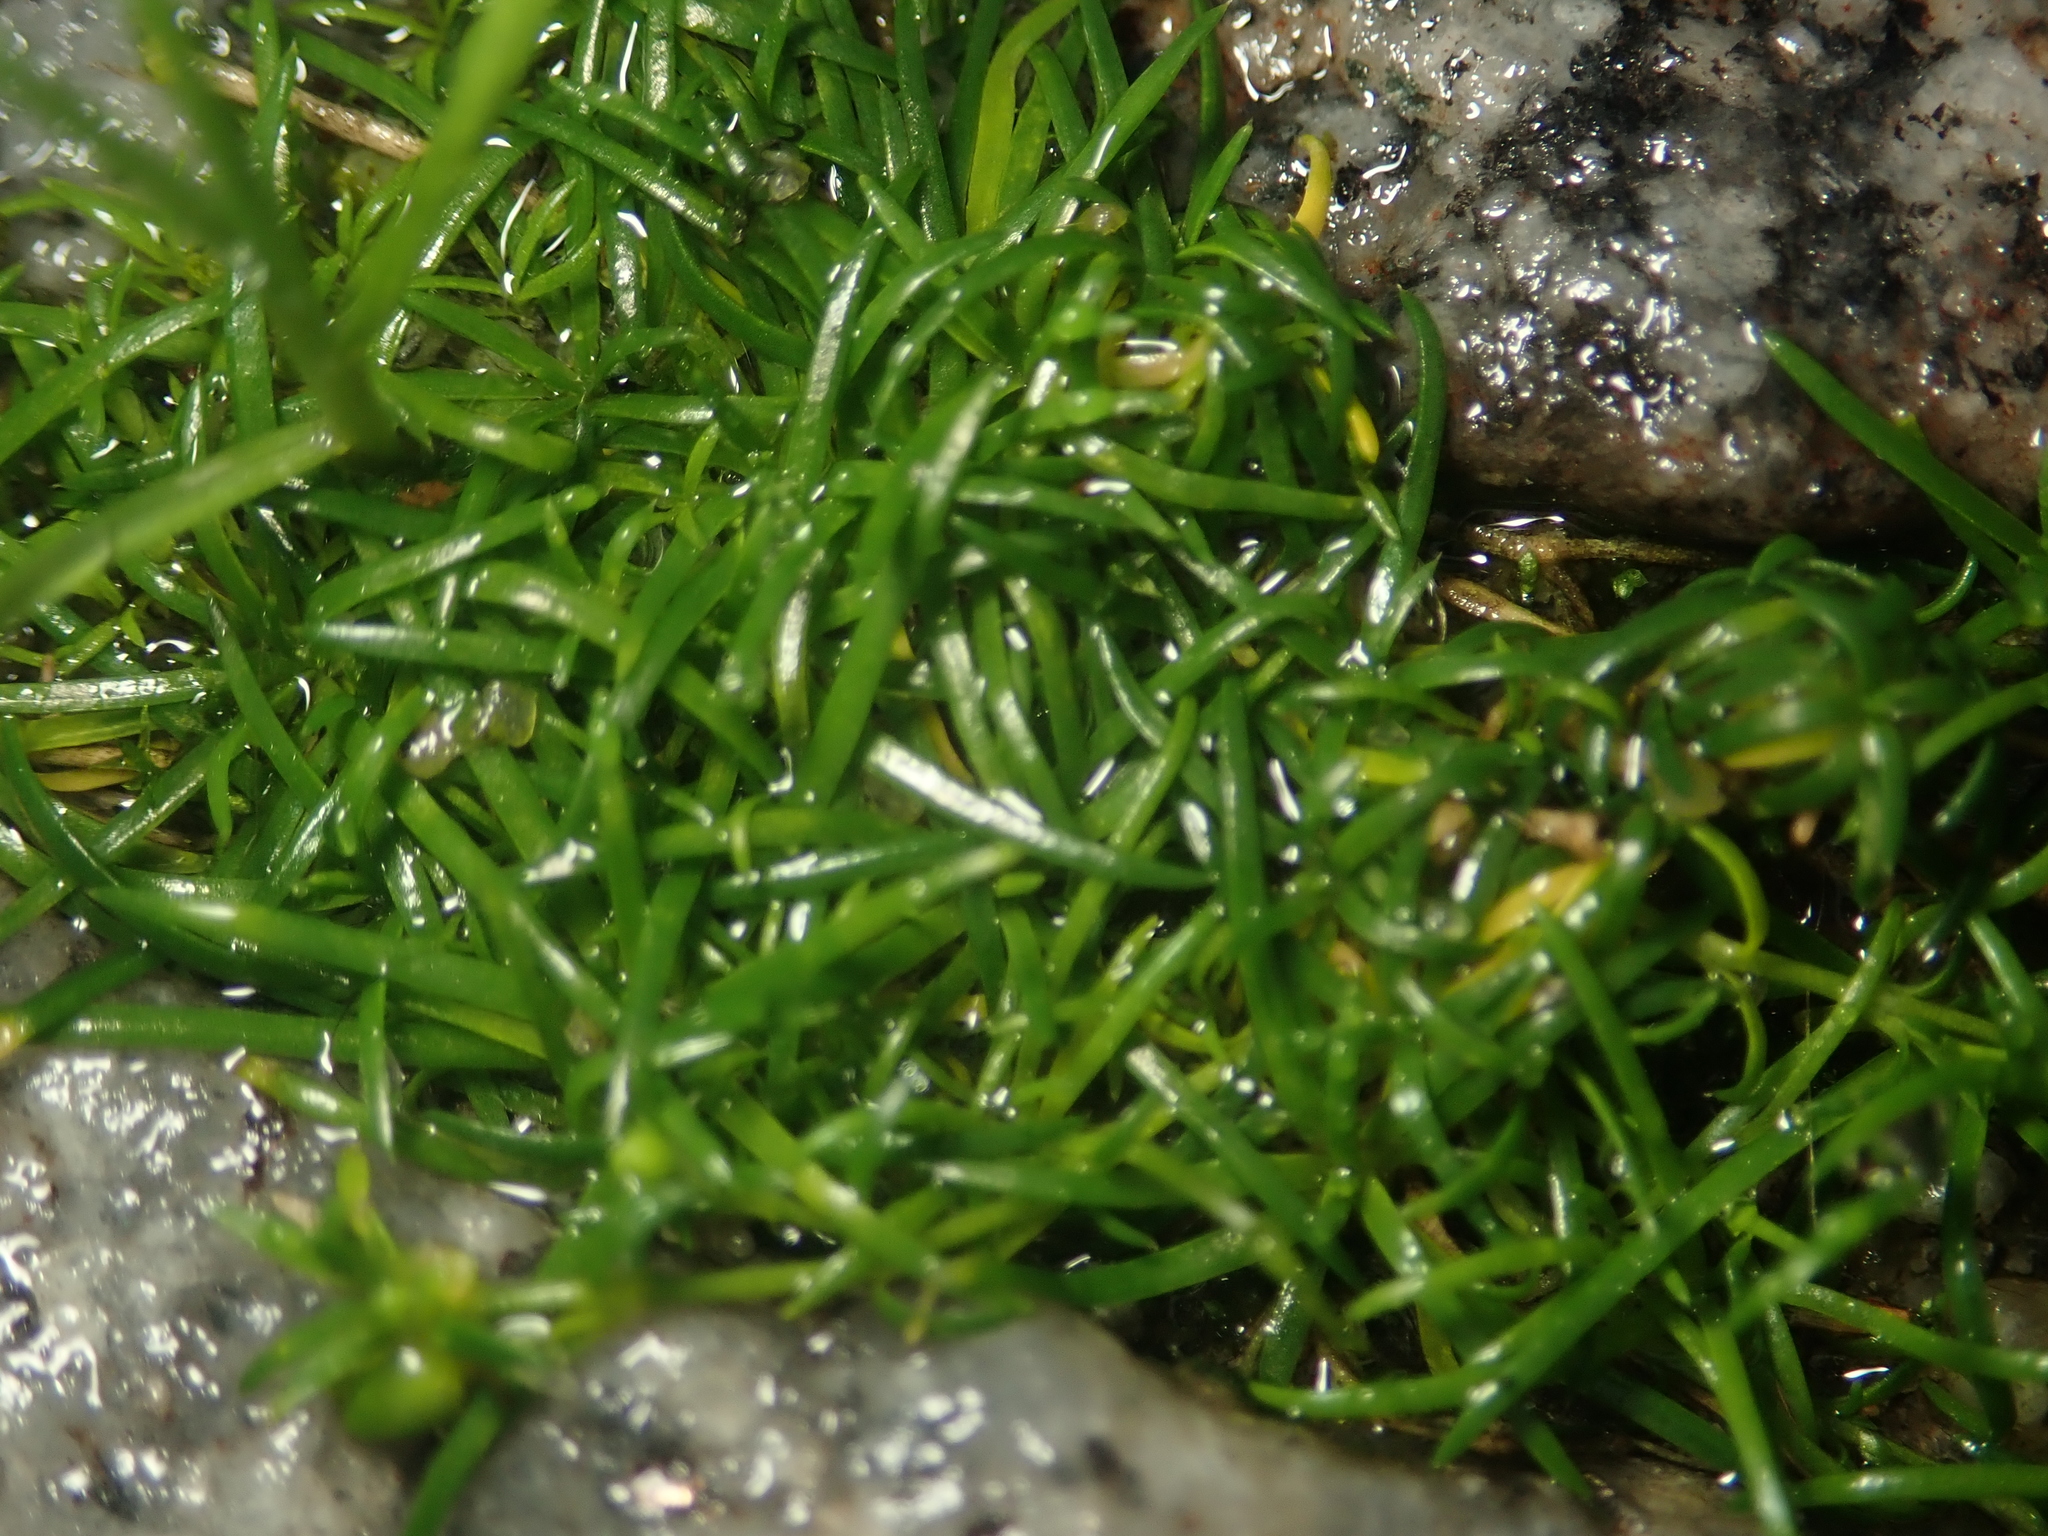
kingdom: Plantae
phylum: Tracheophyta
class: Magnoliopsida
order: Caryophyllales
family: Caryophyllaceae
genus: Sagina
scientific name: Sagina procumbens
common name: Procumbent pearlwort
